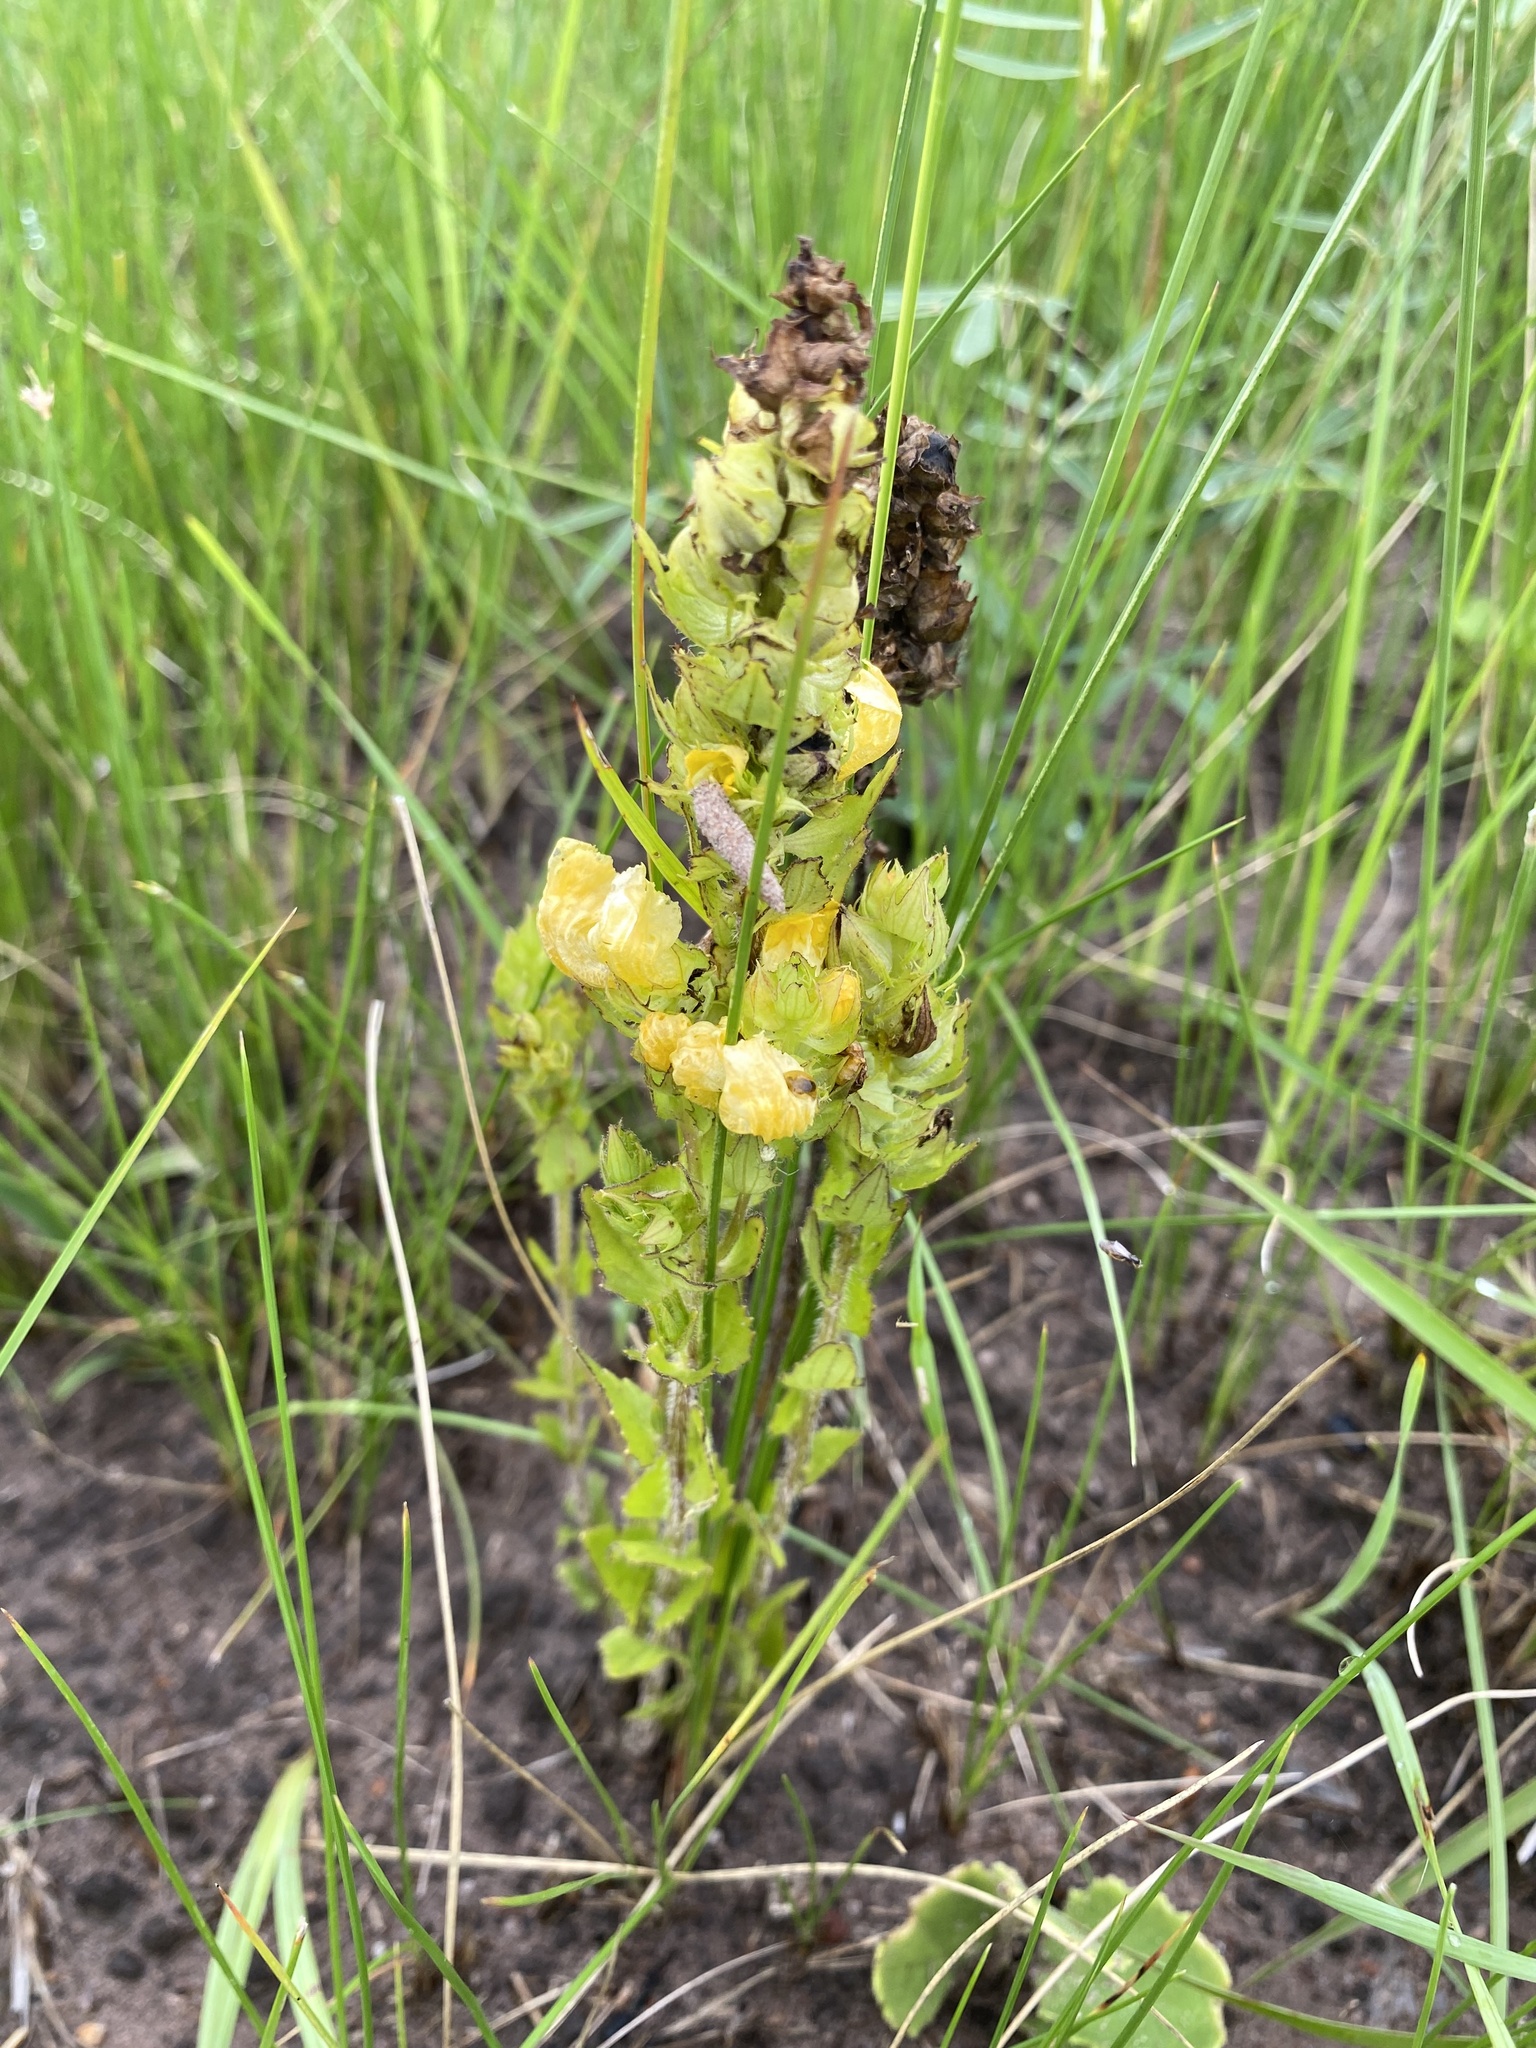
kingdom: Plantae
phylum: Tracheophyta
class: Magnoliopsida
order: Lamiales
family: Orobanchaceae
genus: Alectra
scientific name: Alectra sessiliflora
